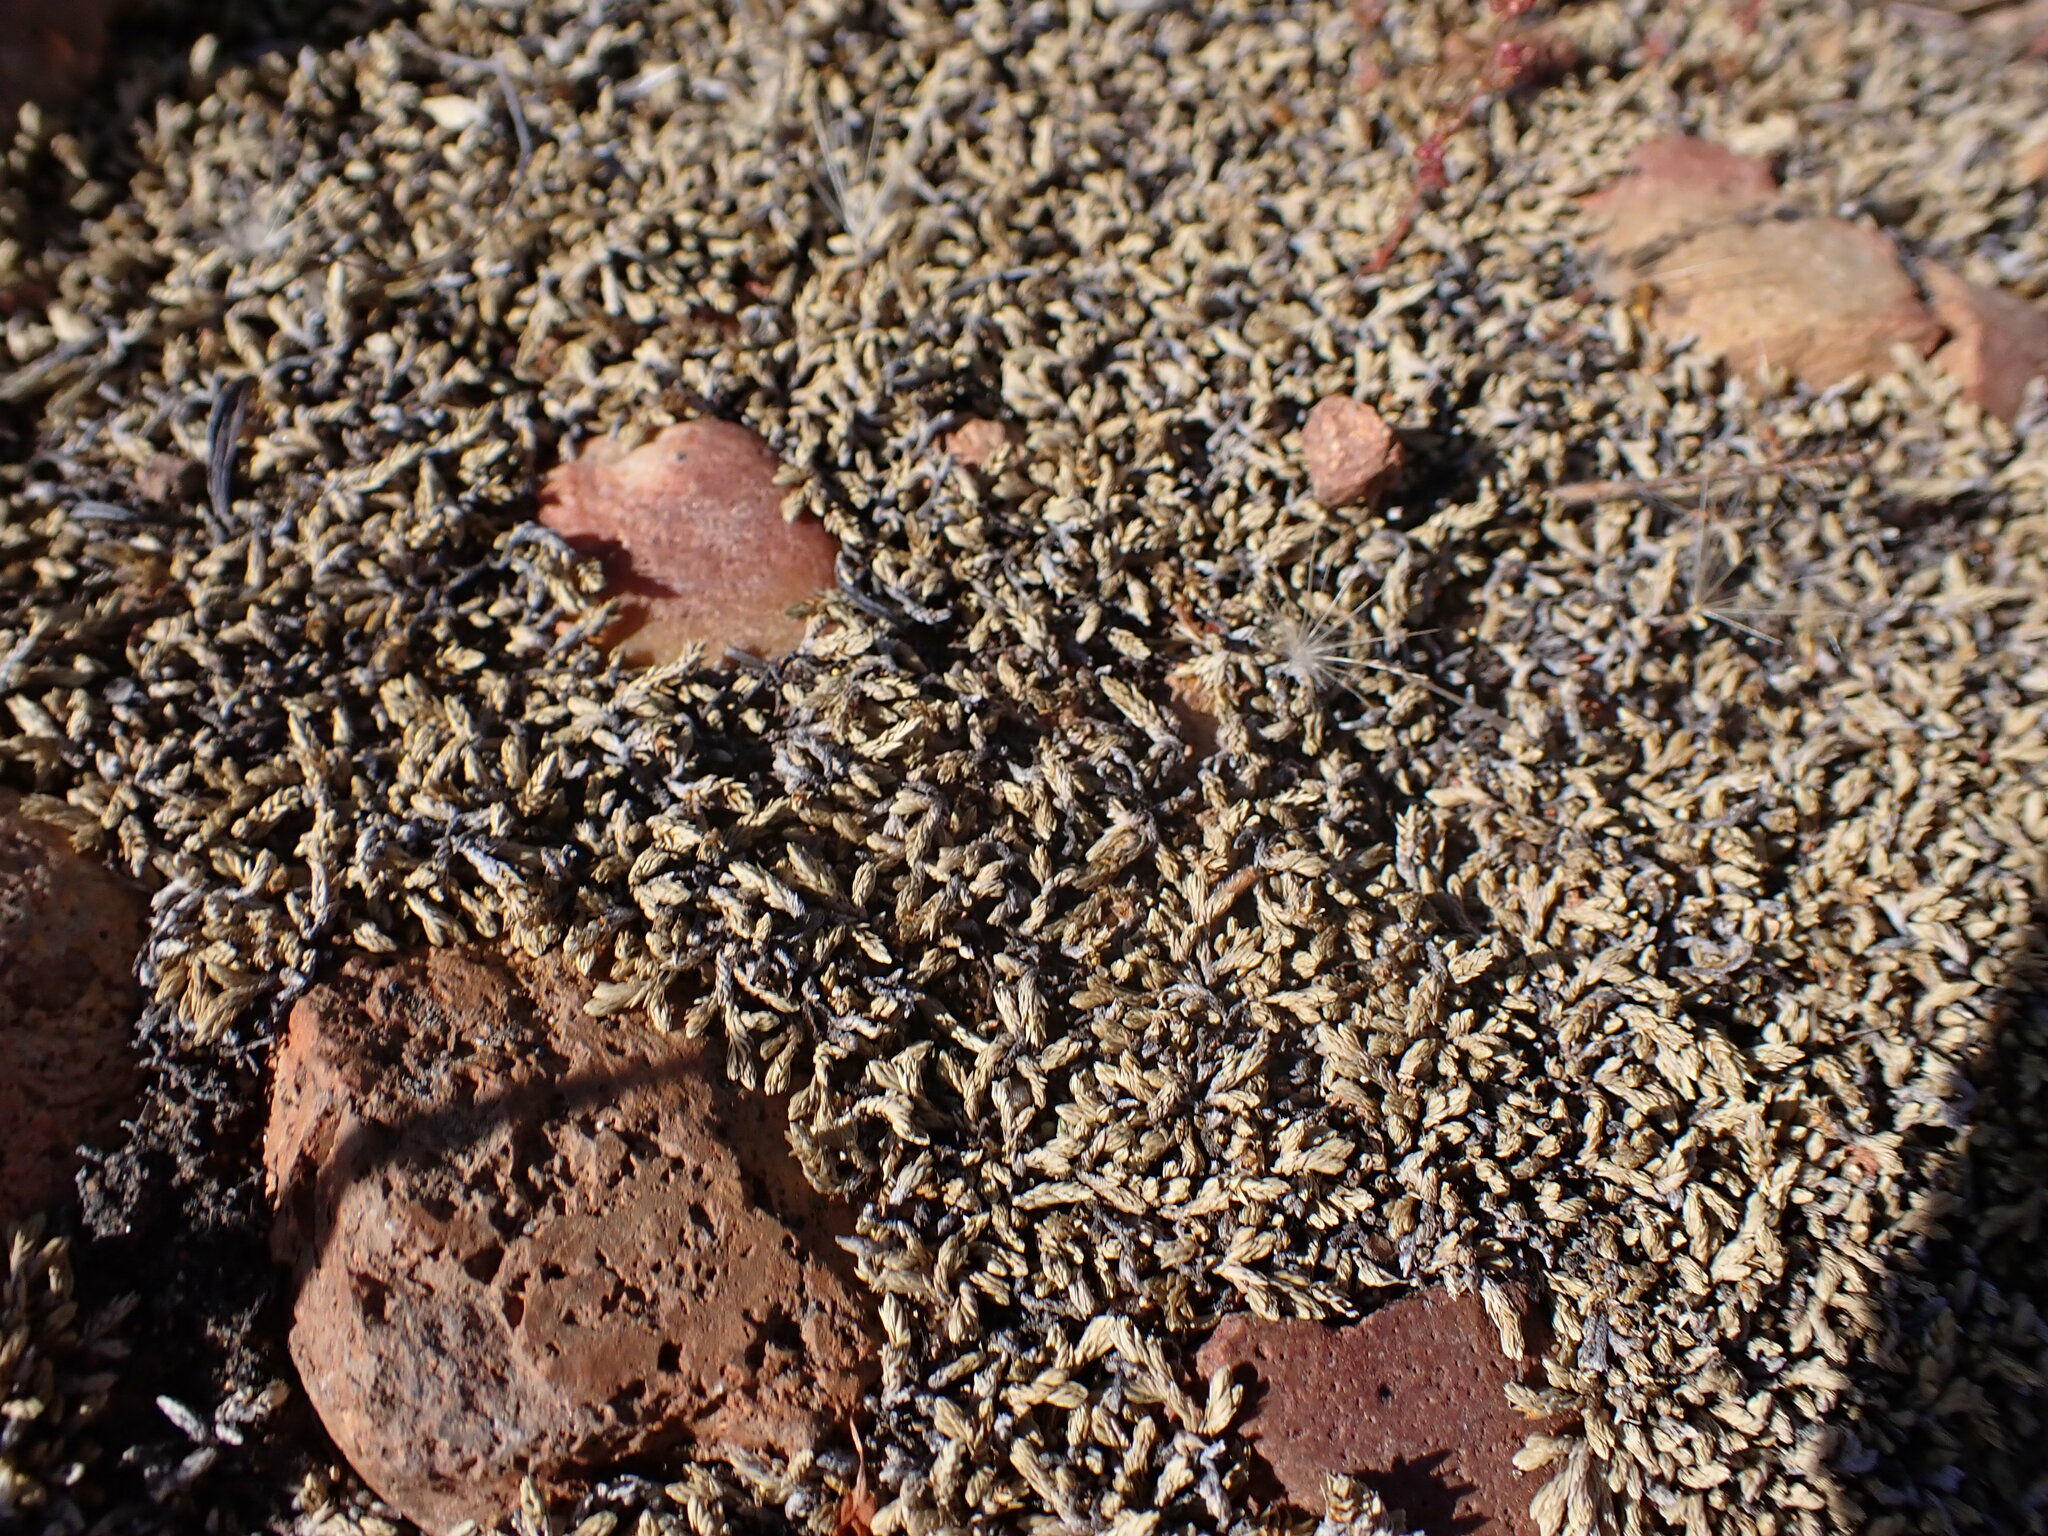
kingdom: Plantae
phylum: Tracheophyta
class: Lycopodiopsida
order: Selaginellales
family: Selaginellaceae
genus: Selaginella
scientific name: Selaginella cinerascens
